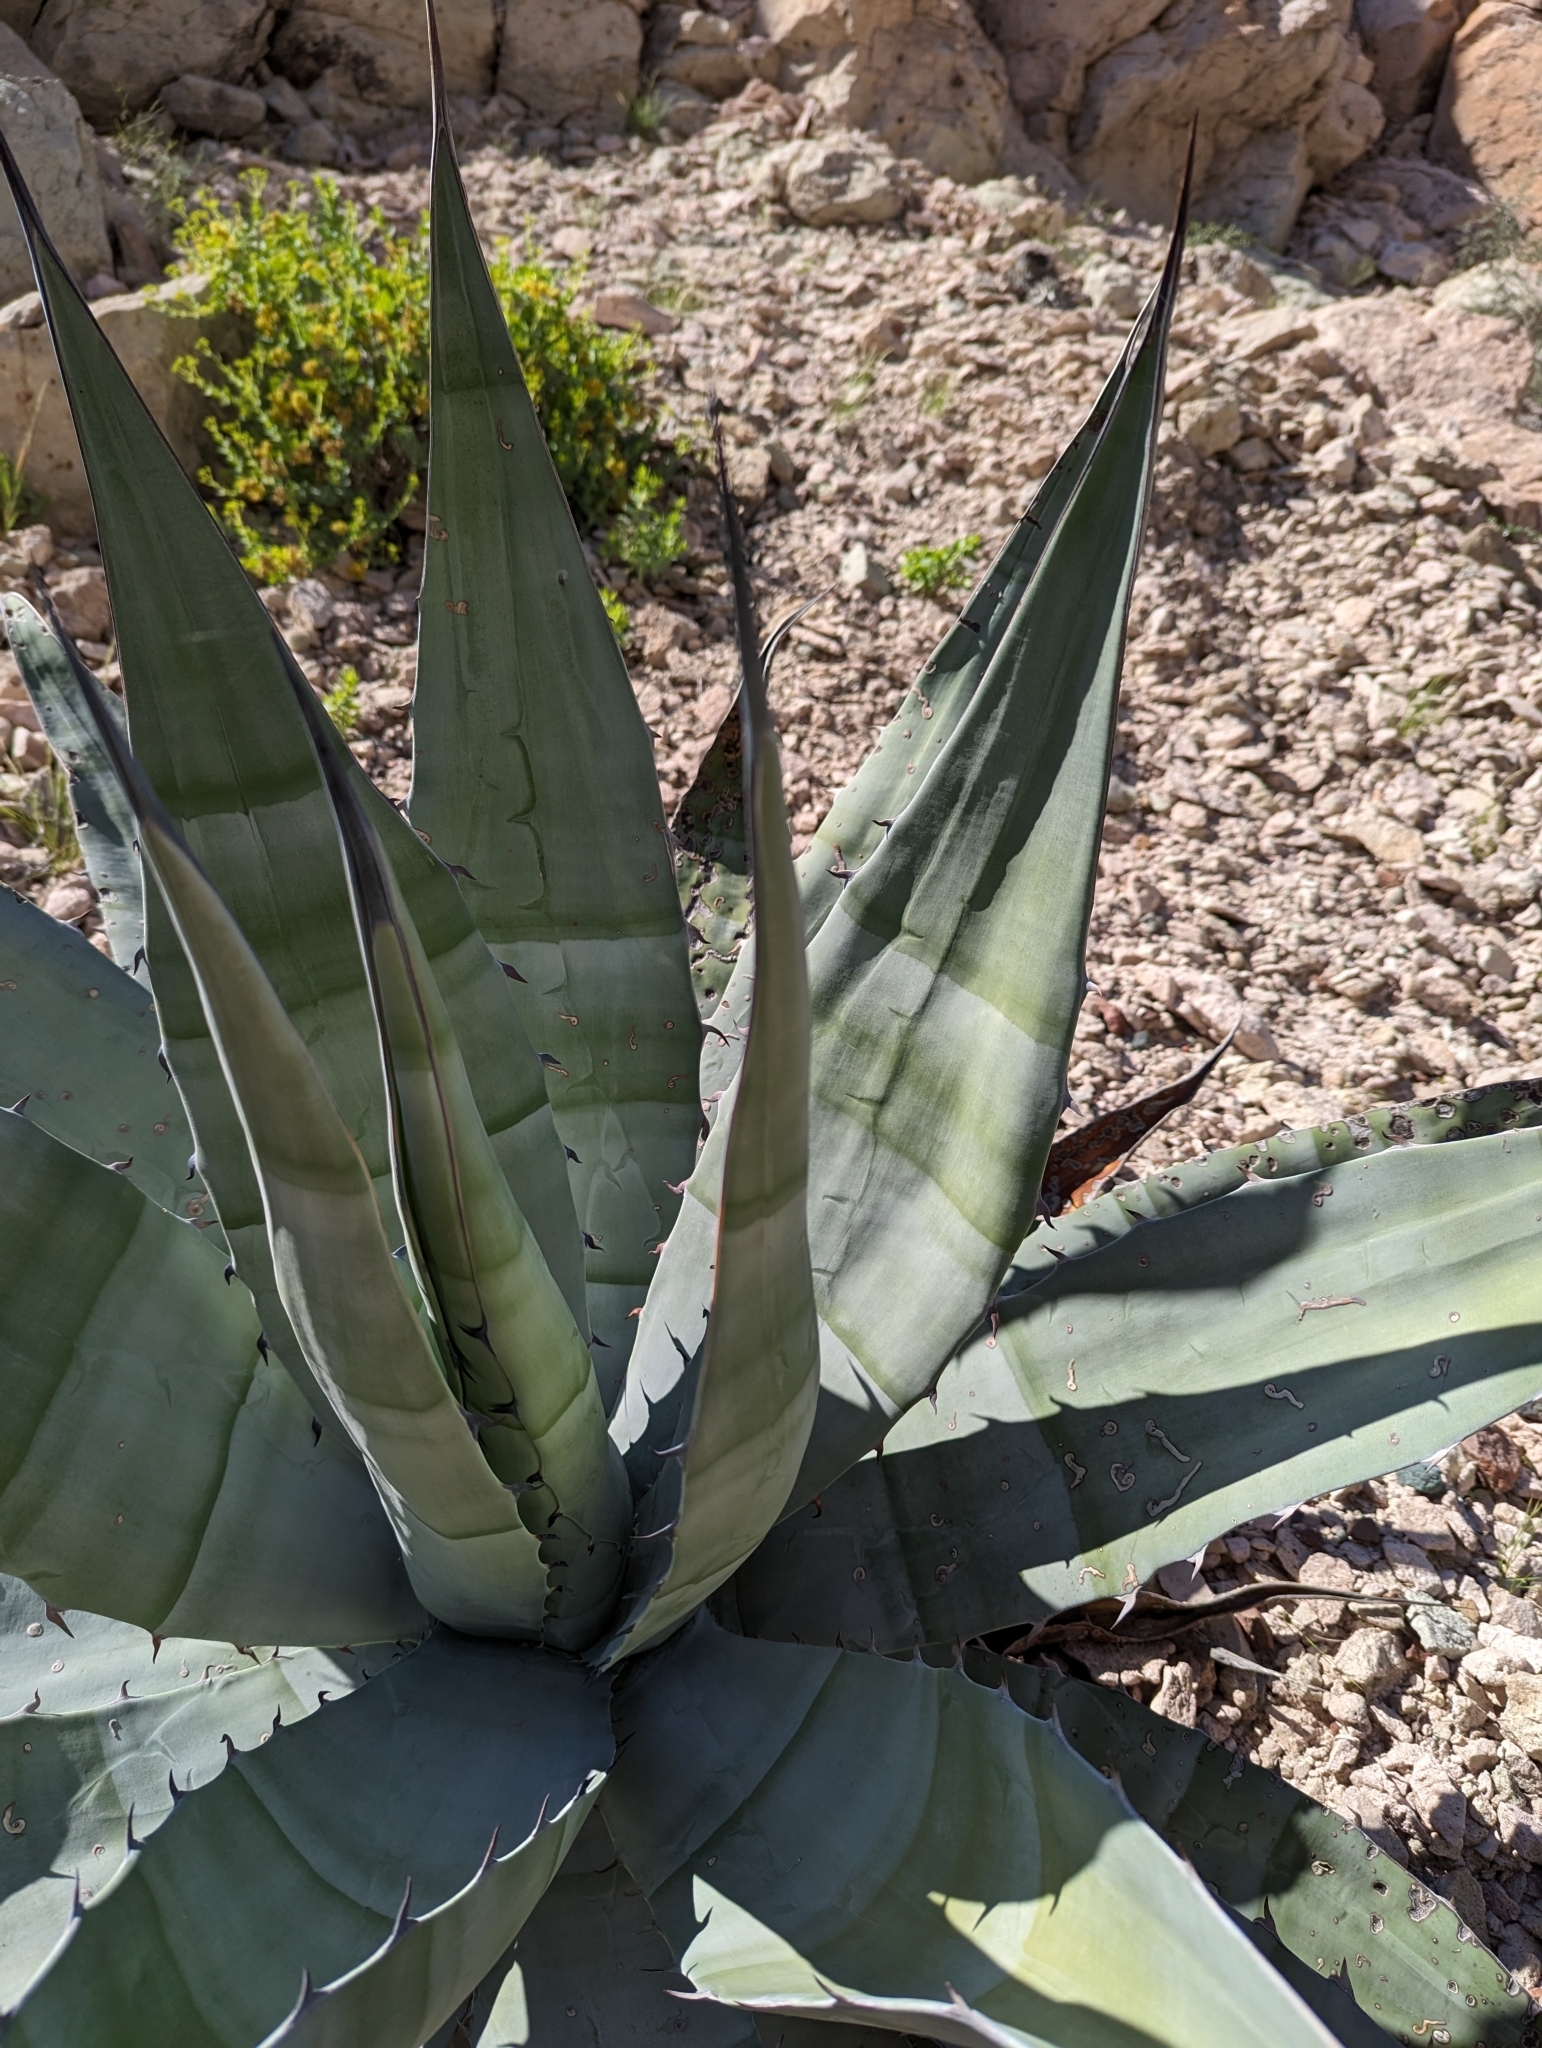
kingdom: Plantae
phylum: Tracheophyta
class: Liliopsida
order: Asparagales
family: Asparagaceae
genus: Agave
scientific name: Agave sobria
